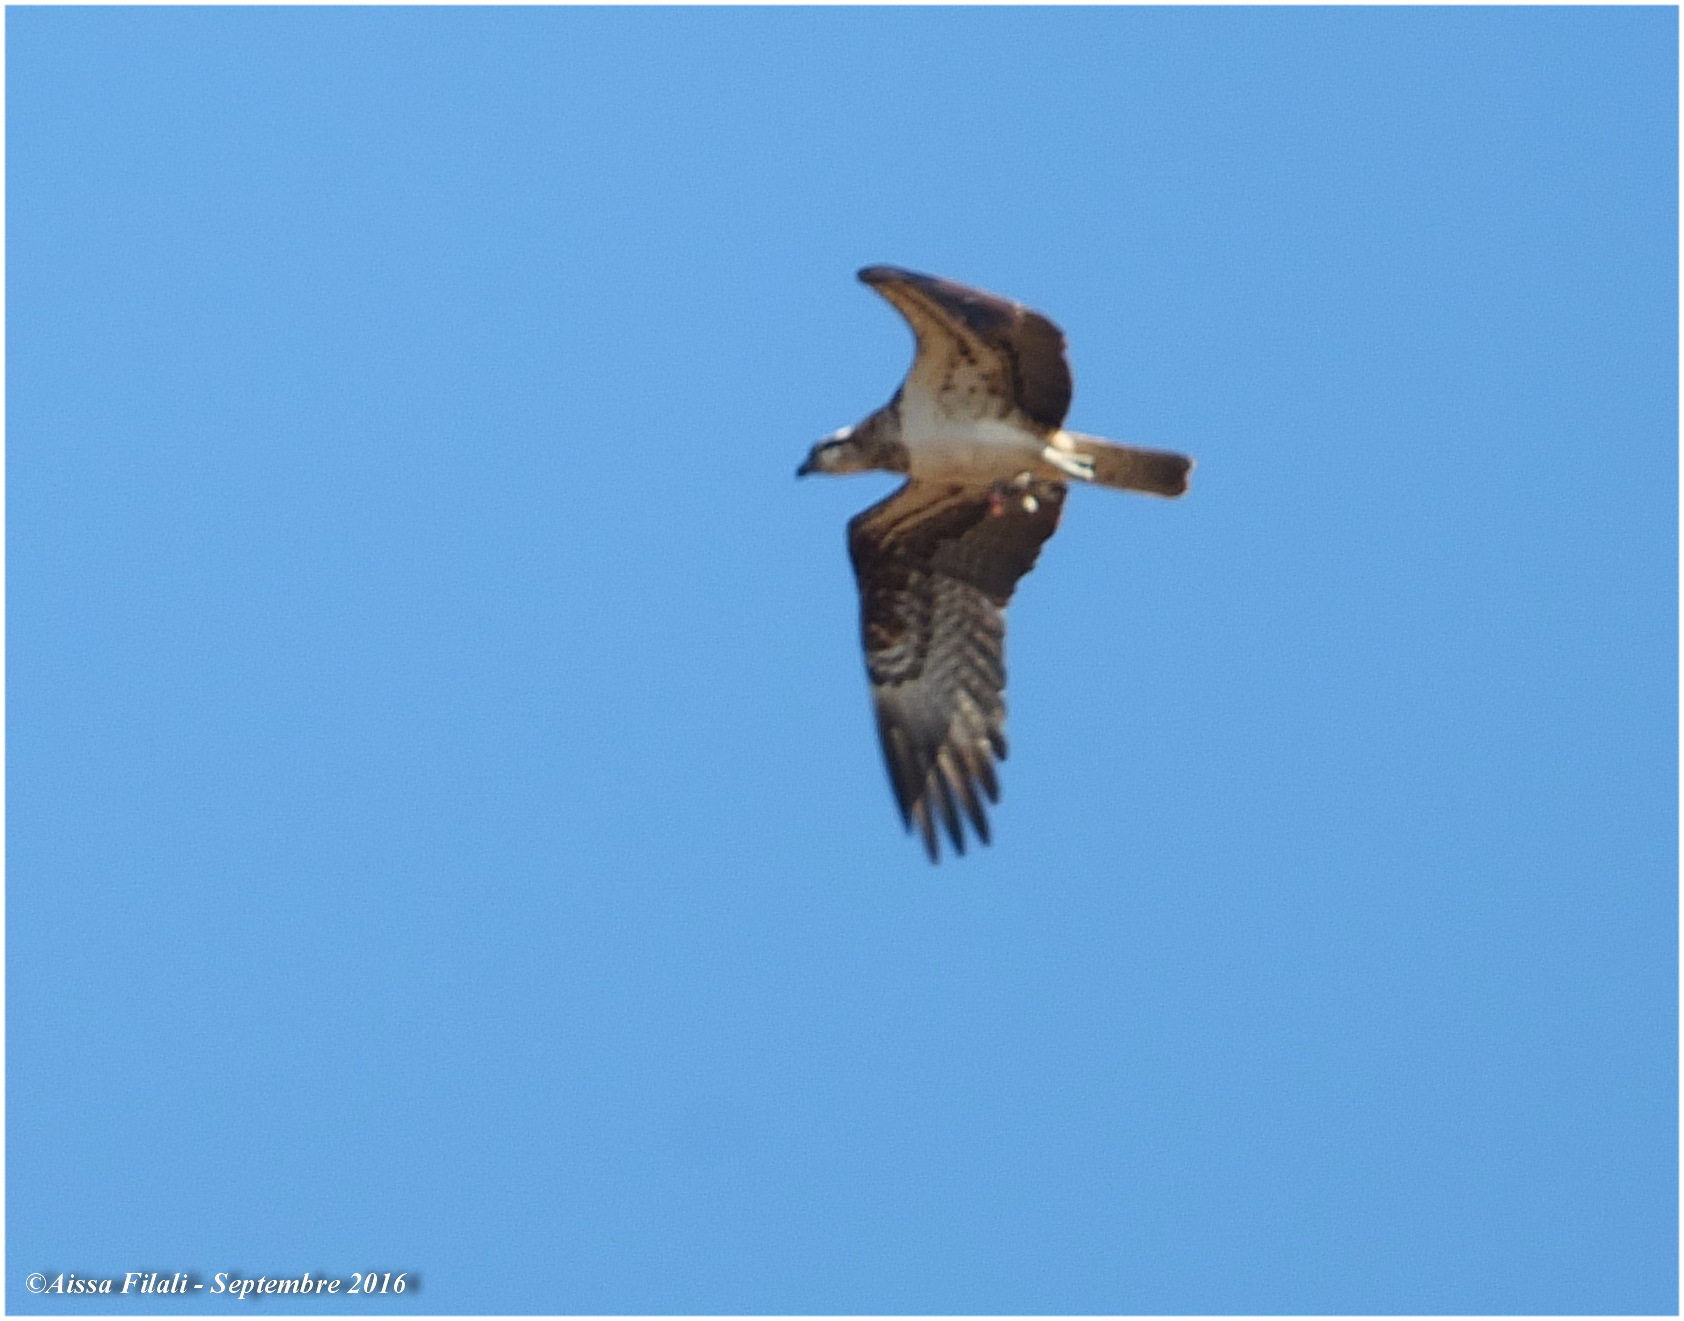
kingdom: Animalia
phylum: Chordata
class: Aves
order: Accipitriformes
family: Pandionidae
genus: Pandion
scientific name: Pandion haliaetus
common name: Osprey
